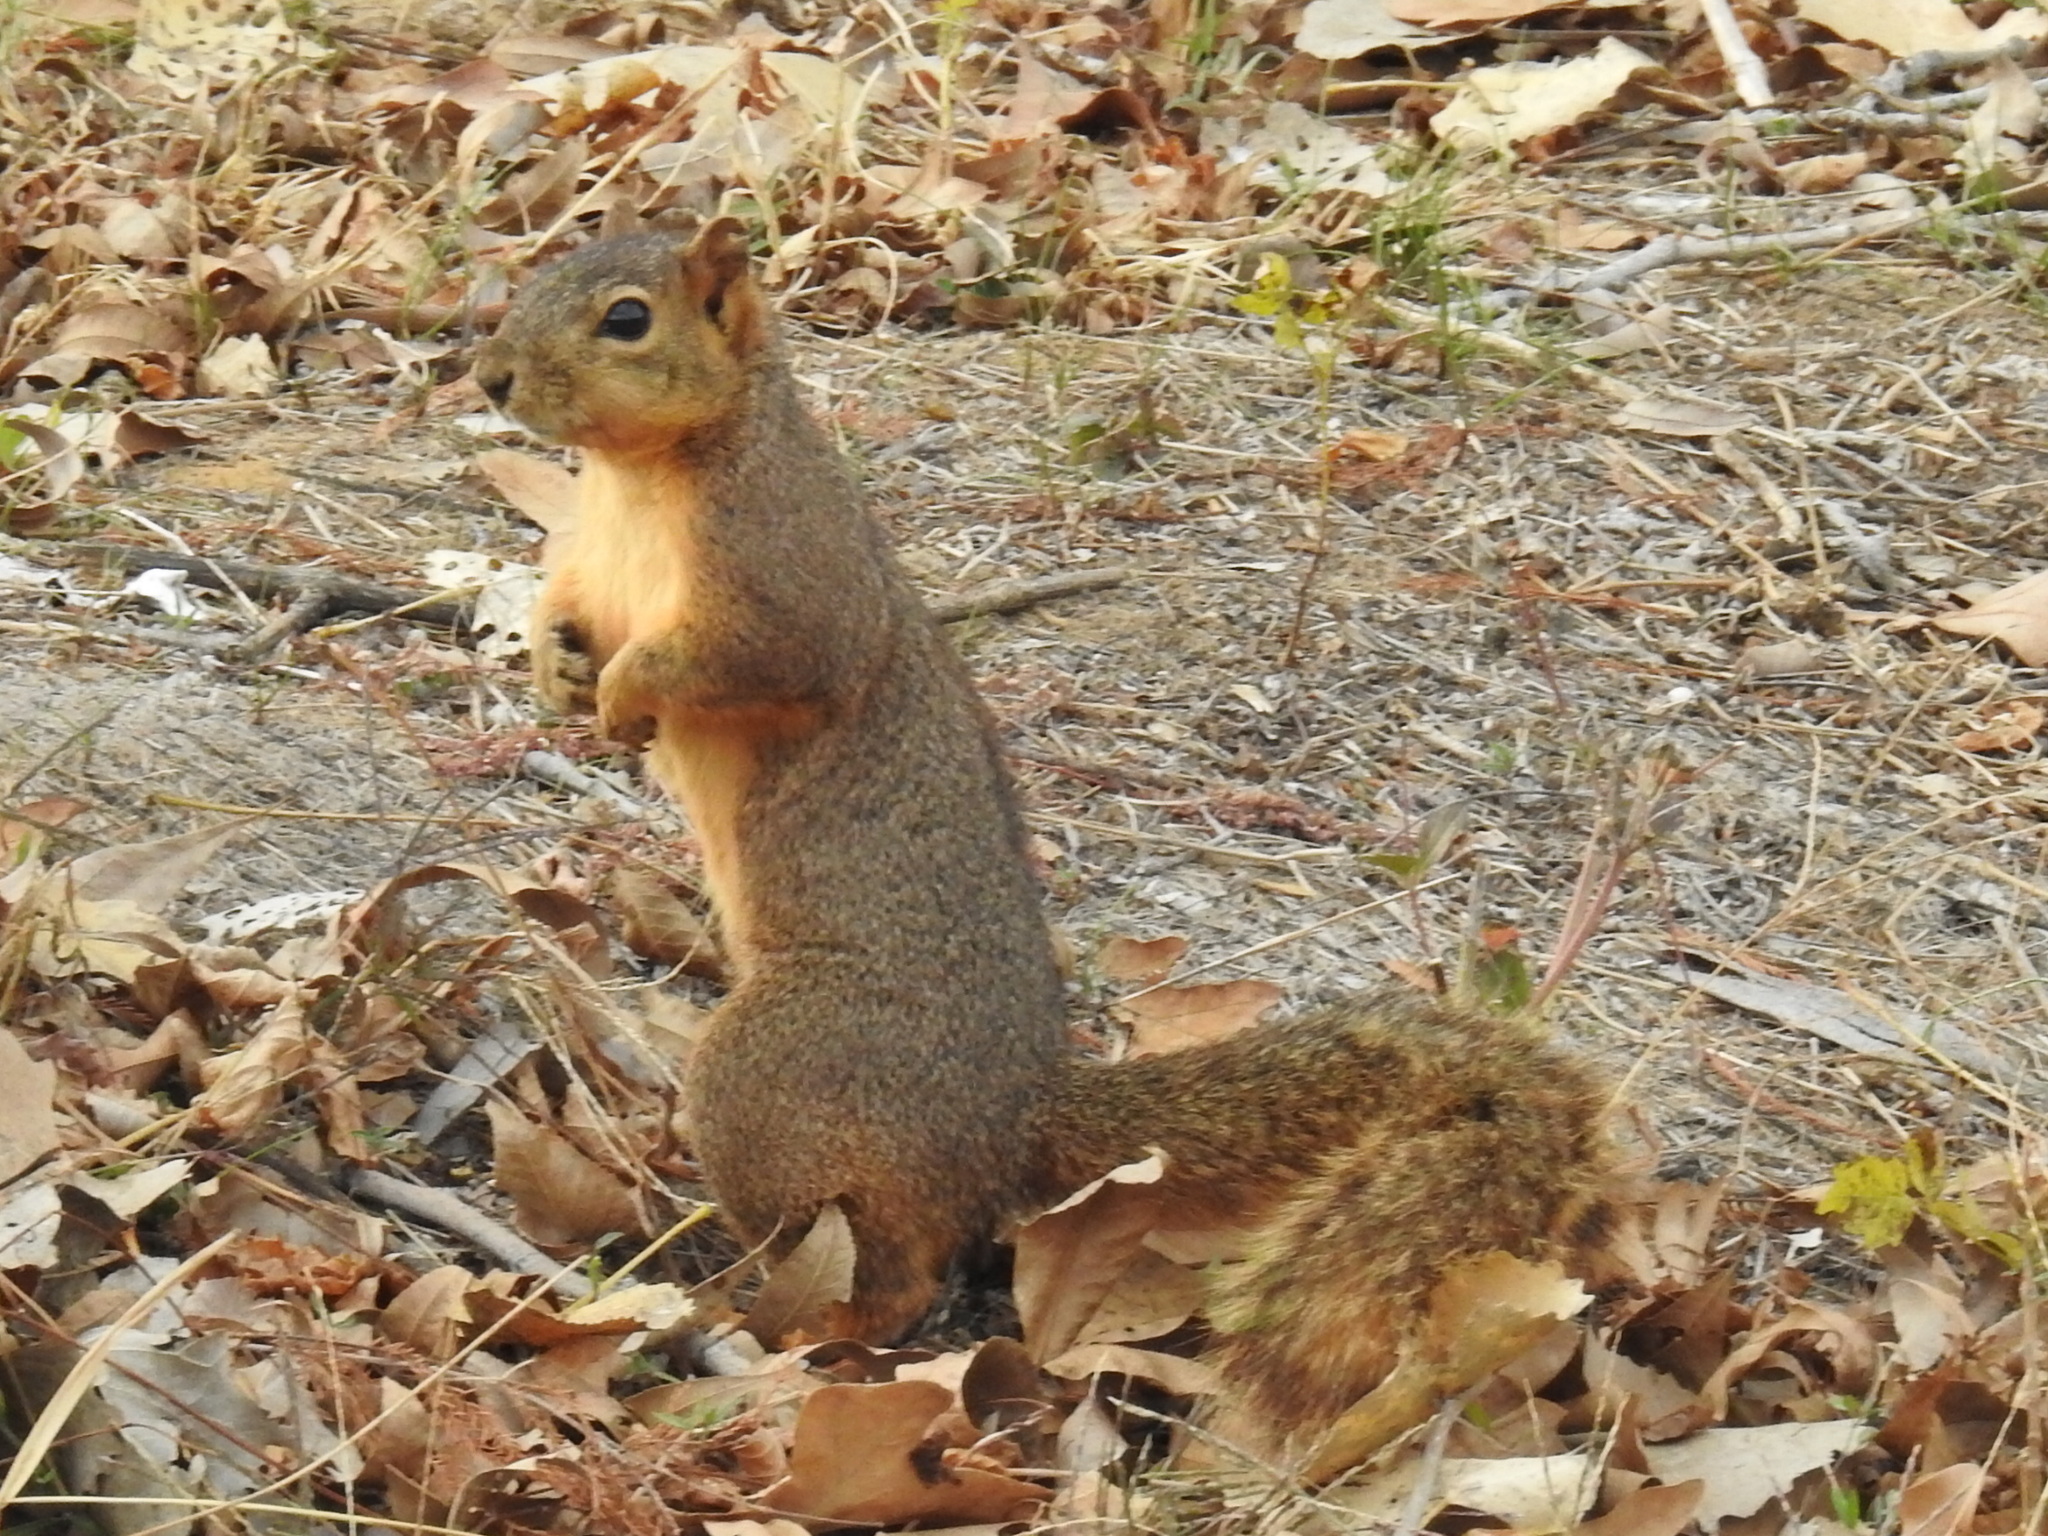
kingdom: Animalia
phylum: Chordata
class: Mammalia
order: Rodentia
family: Sciuridae
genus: Sciurus
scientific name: Sciurus niger
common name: Fox squirrel
